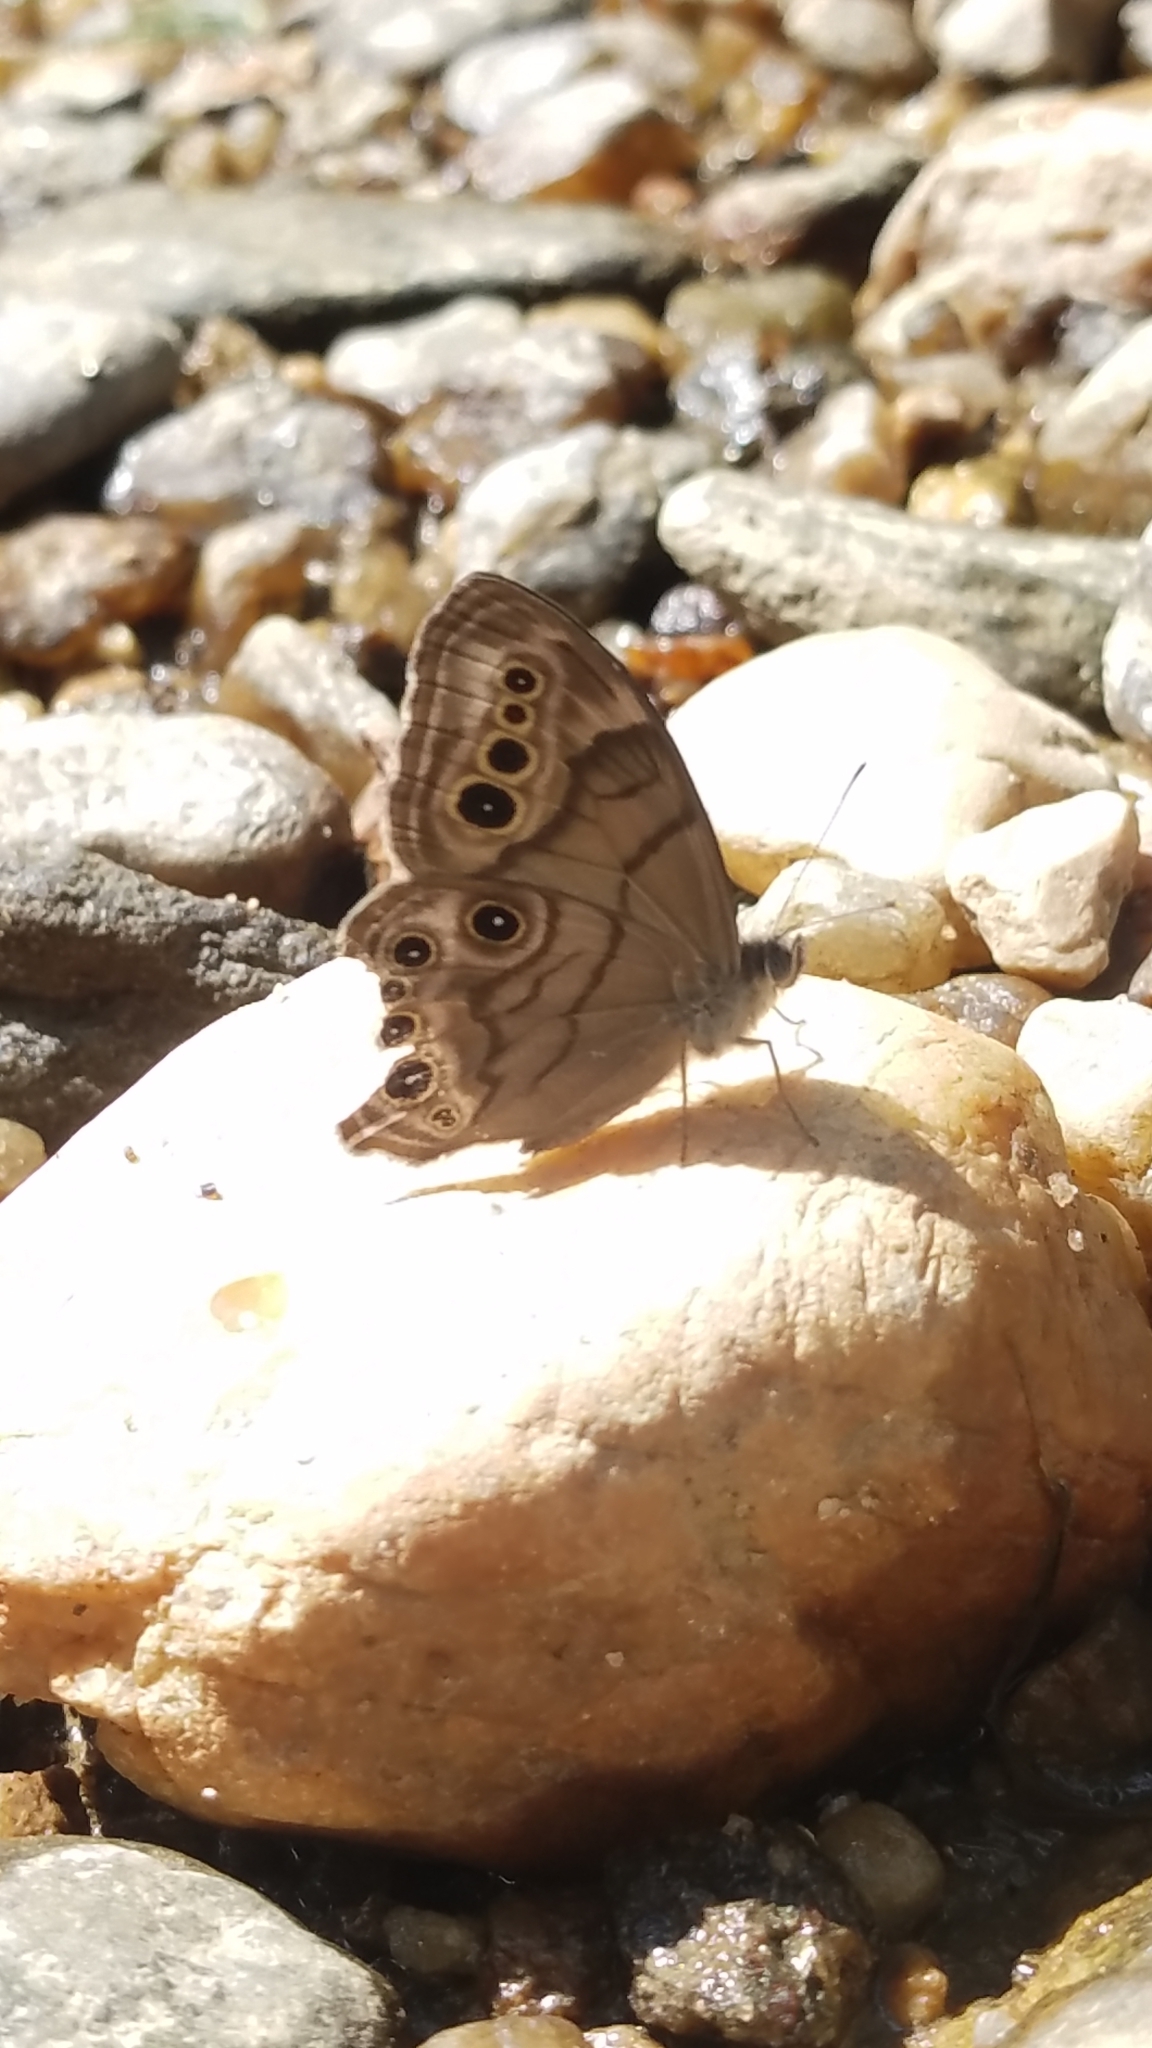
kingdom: Animalia
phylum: Arthropoda
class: Insecta
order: Lepidoptera
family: Nymphalidae
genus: Lethe
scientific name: Lethe anthedon
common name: Northern pearly-eye
